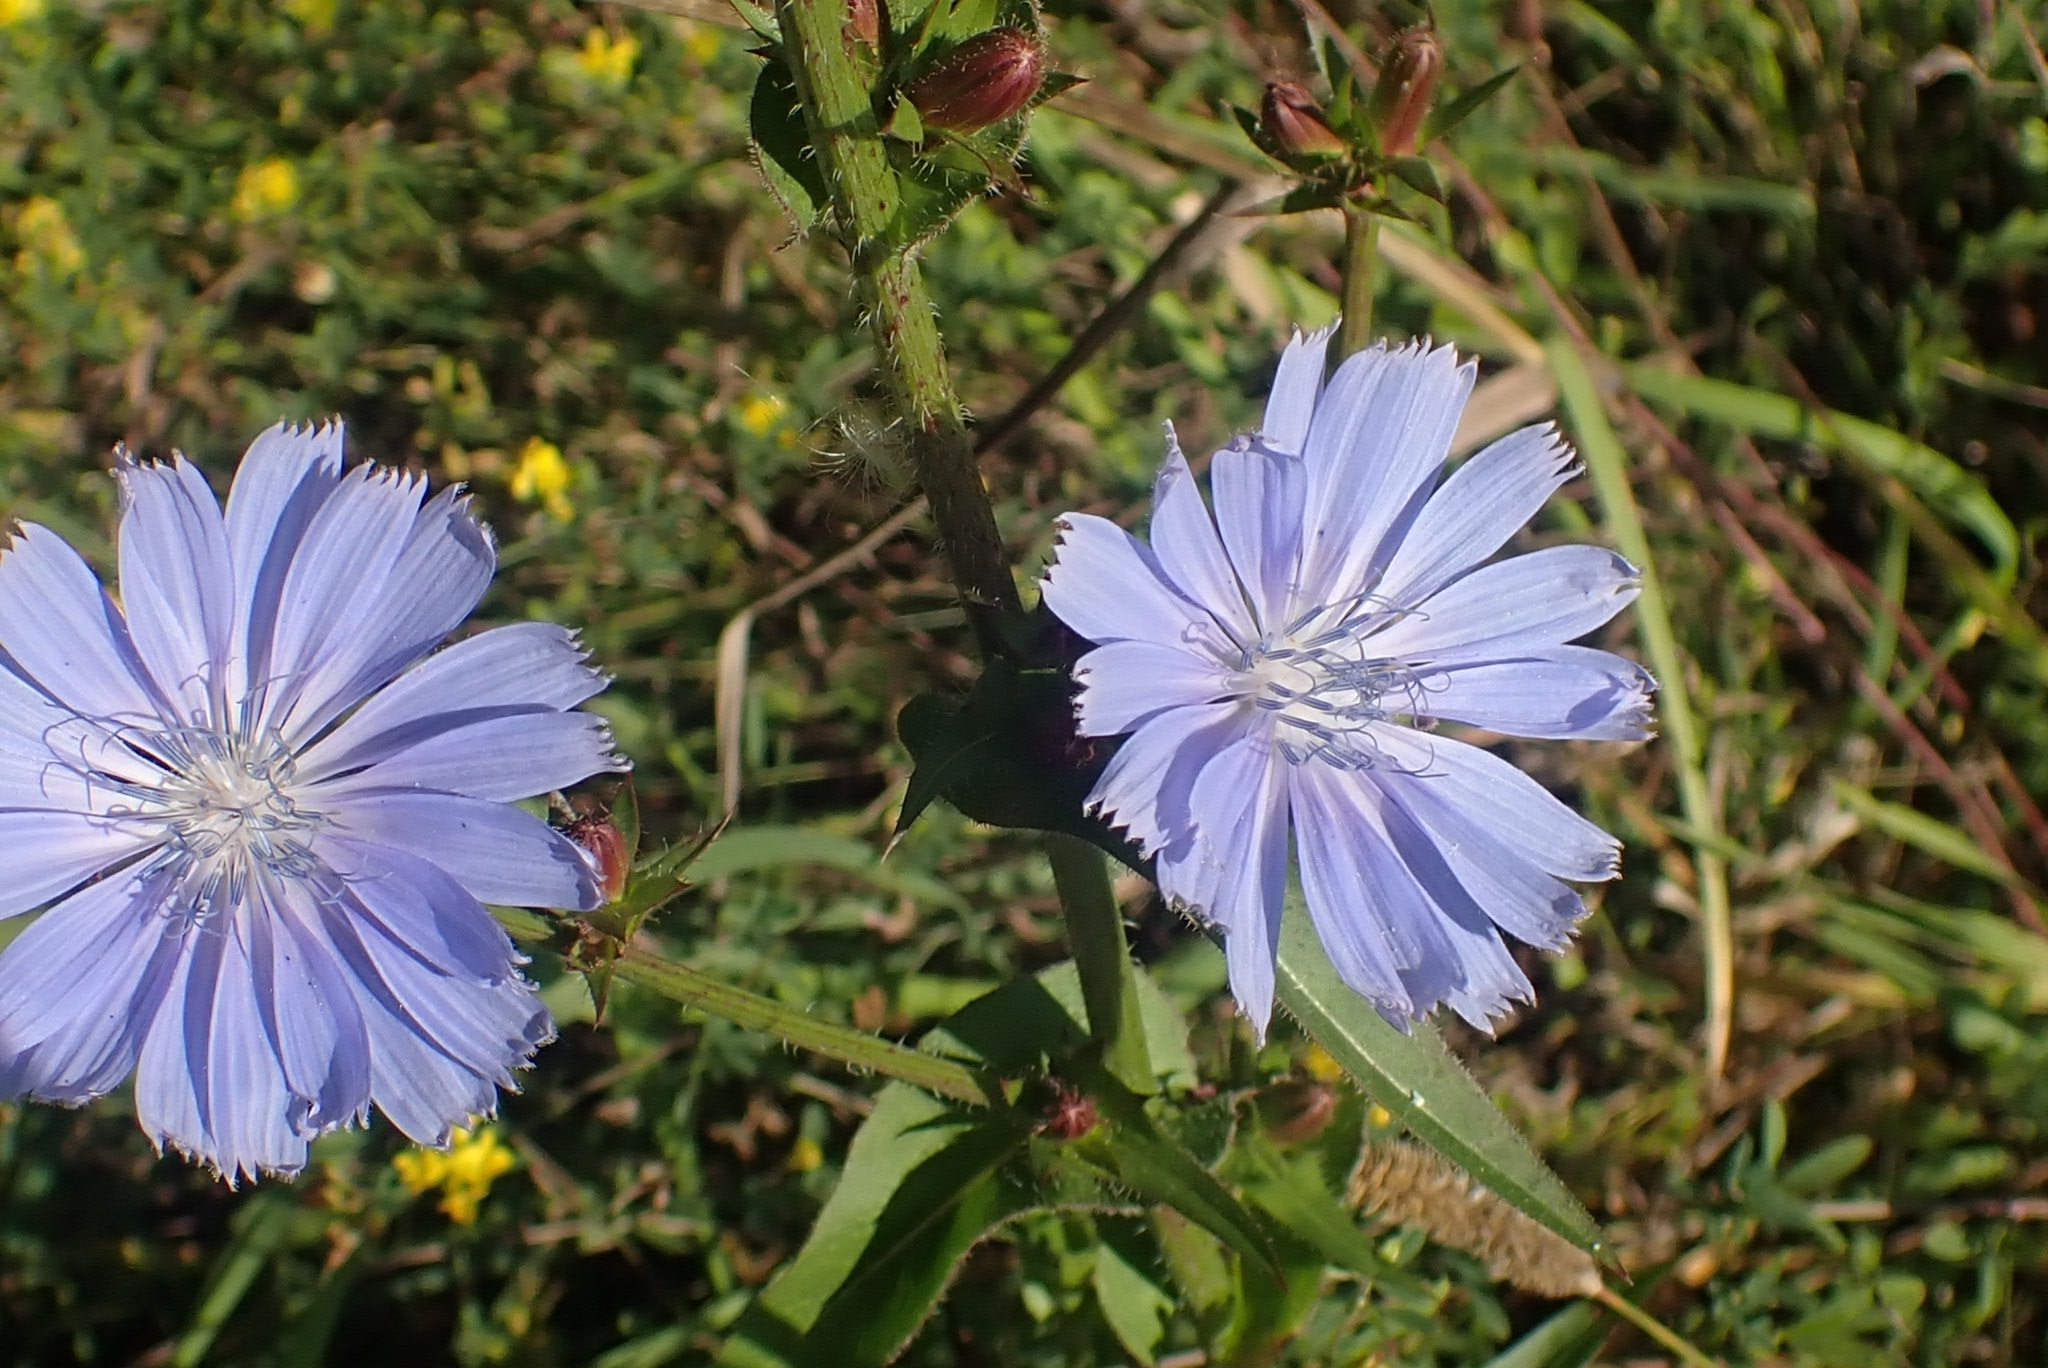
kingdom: Plantae
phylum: Tracheophyta
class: Magnoliopsida
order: Asterales
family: Asteraceae
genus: Cichorium
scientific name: Cichorium intybus
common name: Chicory
